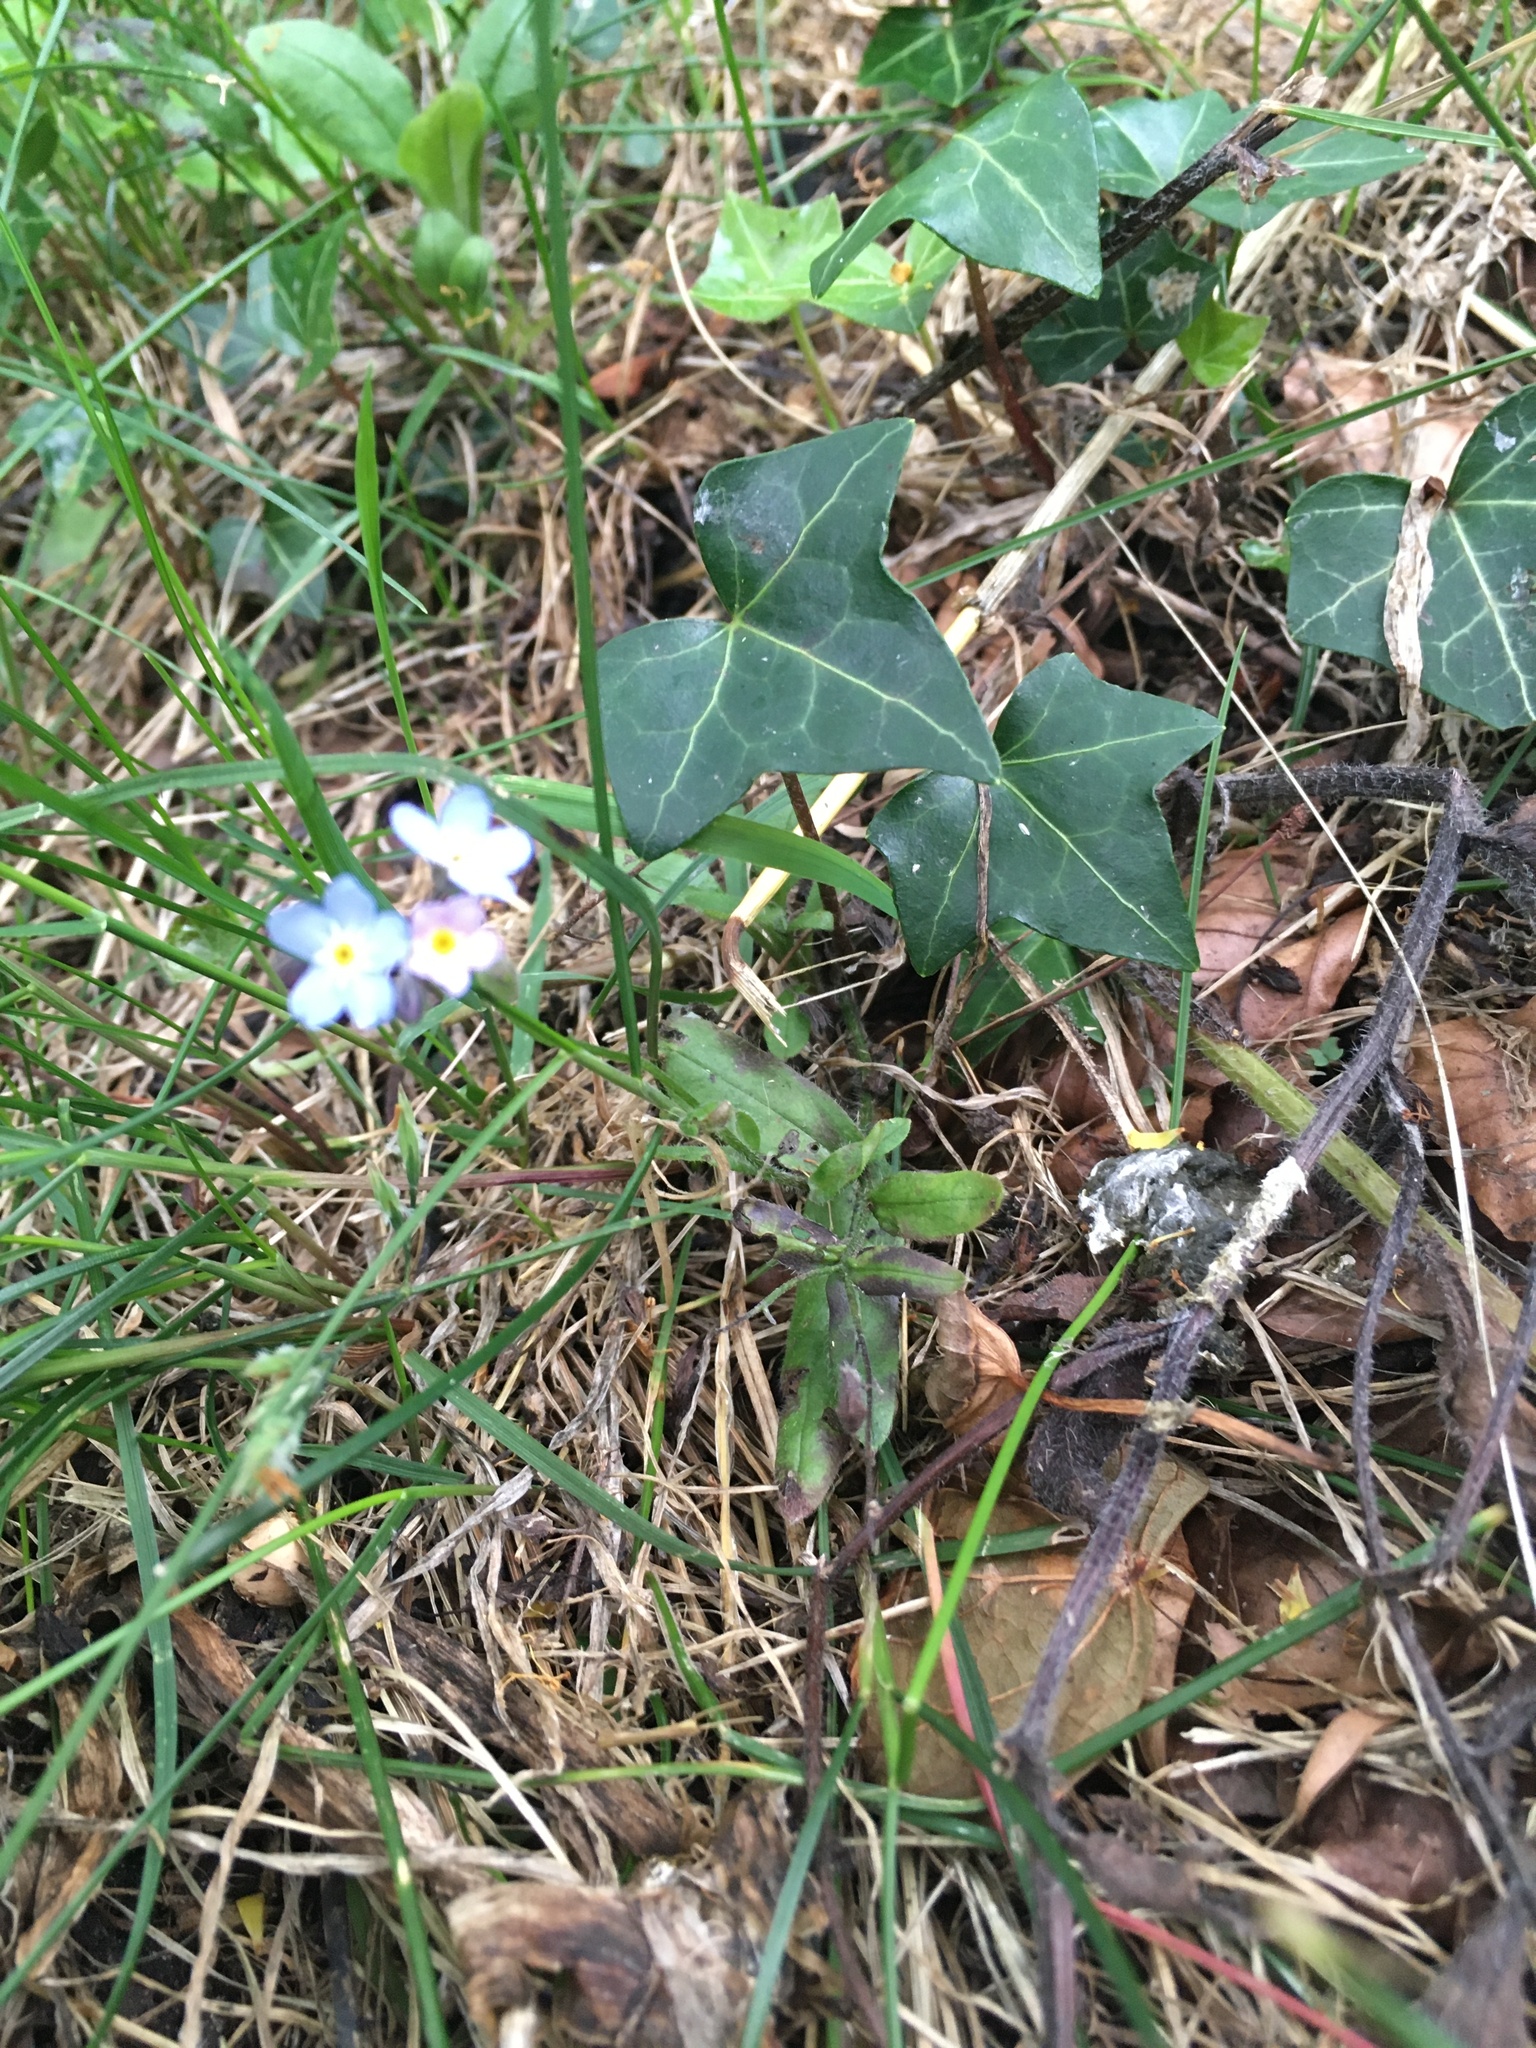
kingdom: Plantae
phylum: Tracheophyta
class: Magnoliopsida
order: Boraginales
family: Boraginaceae
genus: Myosotis
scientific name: Myosotis sylvatica
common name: Wood forget-me-not
